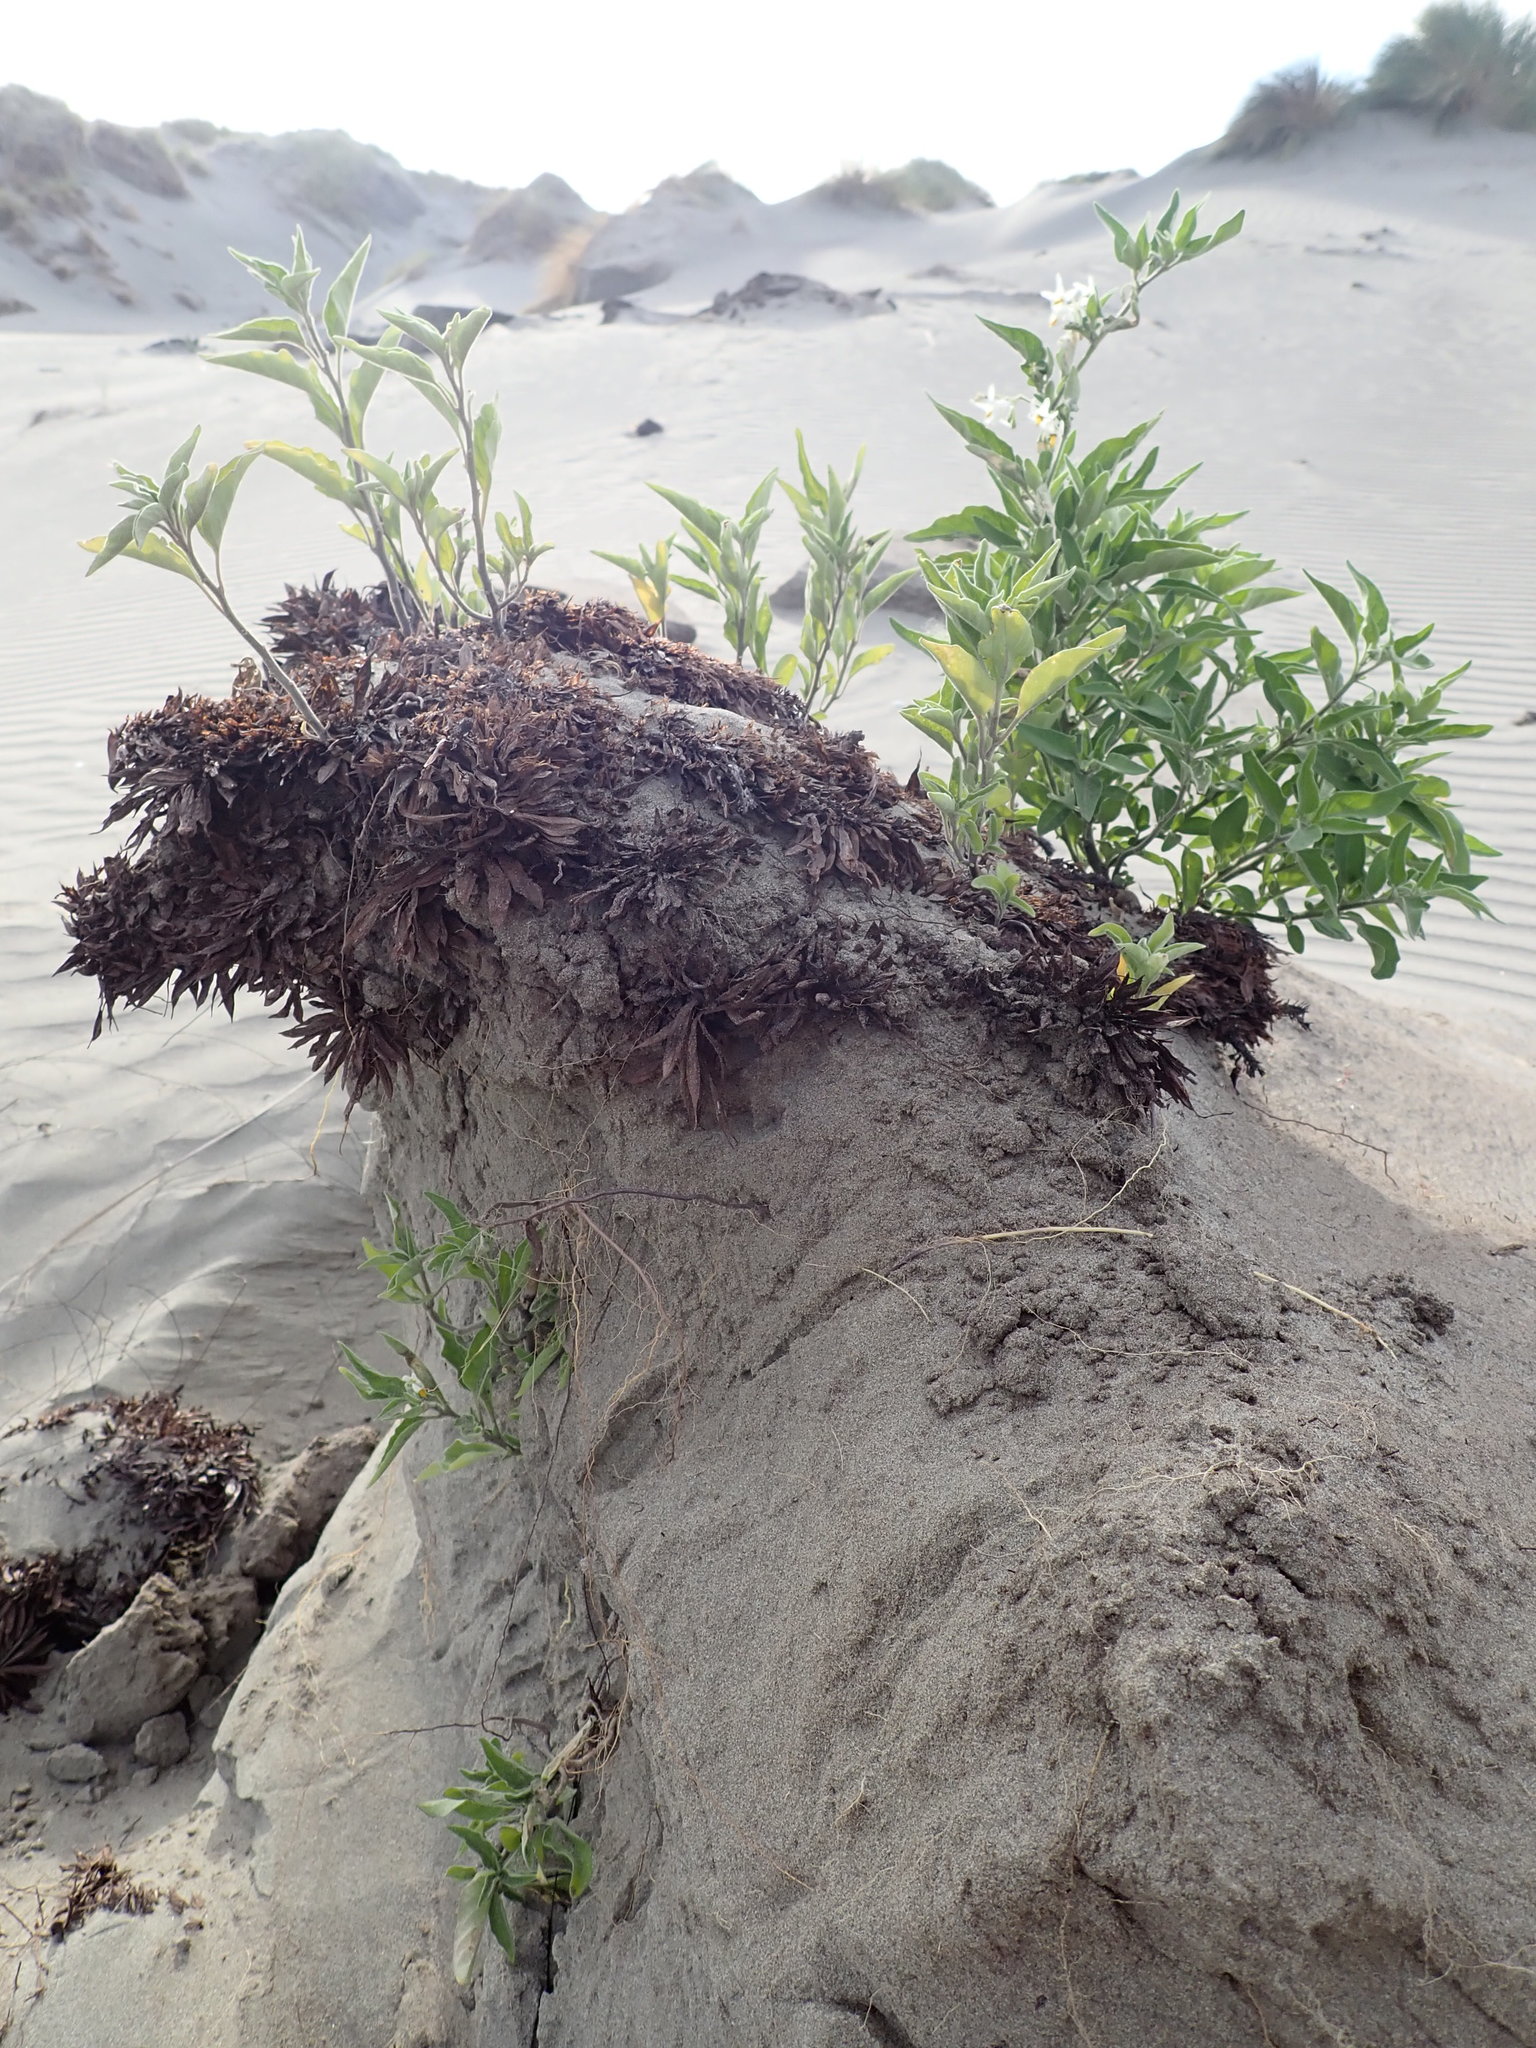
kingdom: Plantae
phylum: Tracheophyta
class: Magnoliopsida
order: Solanales
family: Solanaceae
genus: Solanum
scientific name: Solanum chenopodioides
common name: Tall nightshade
